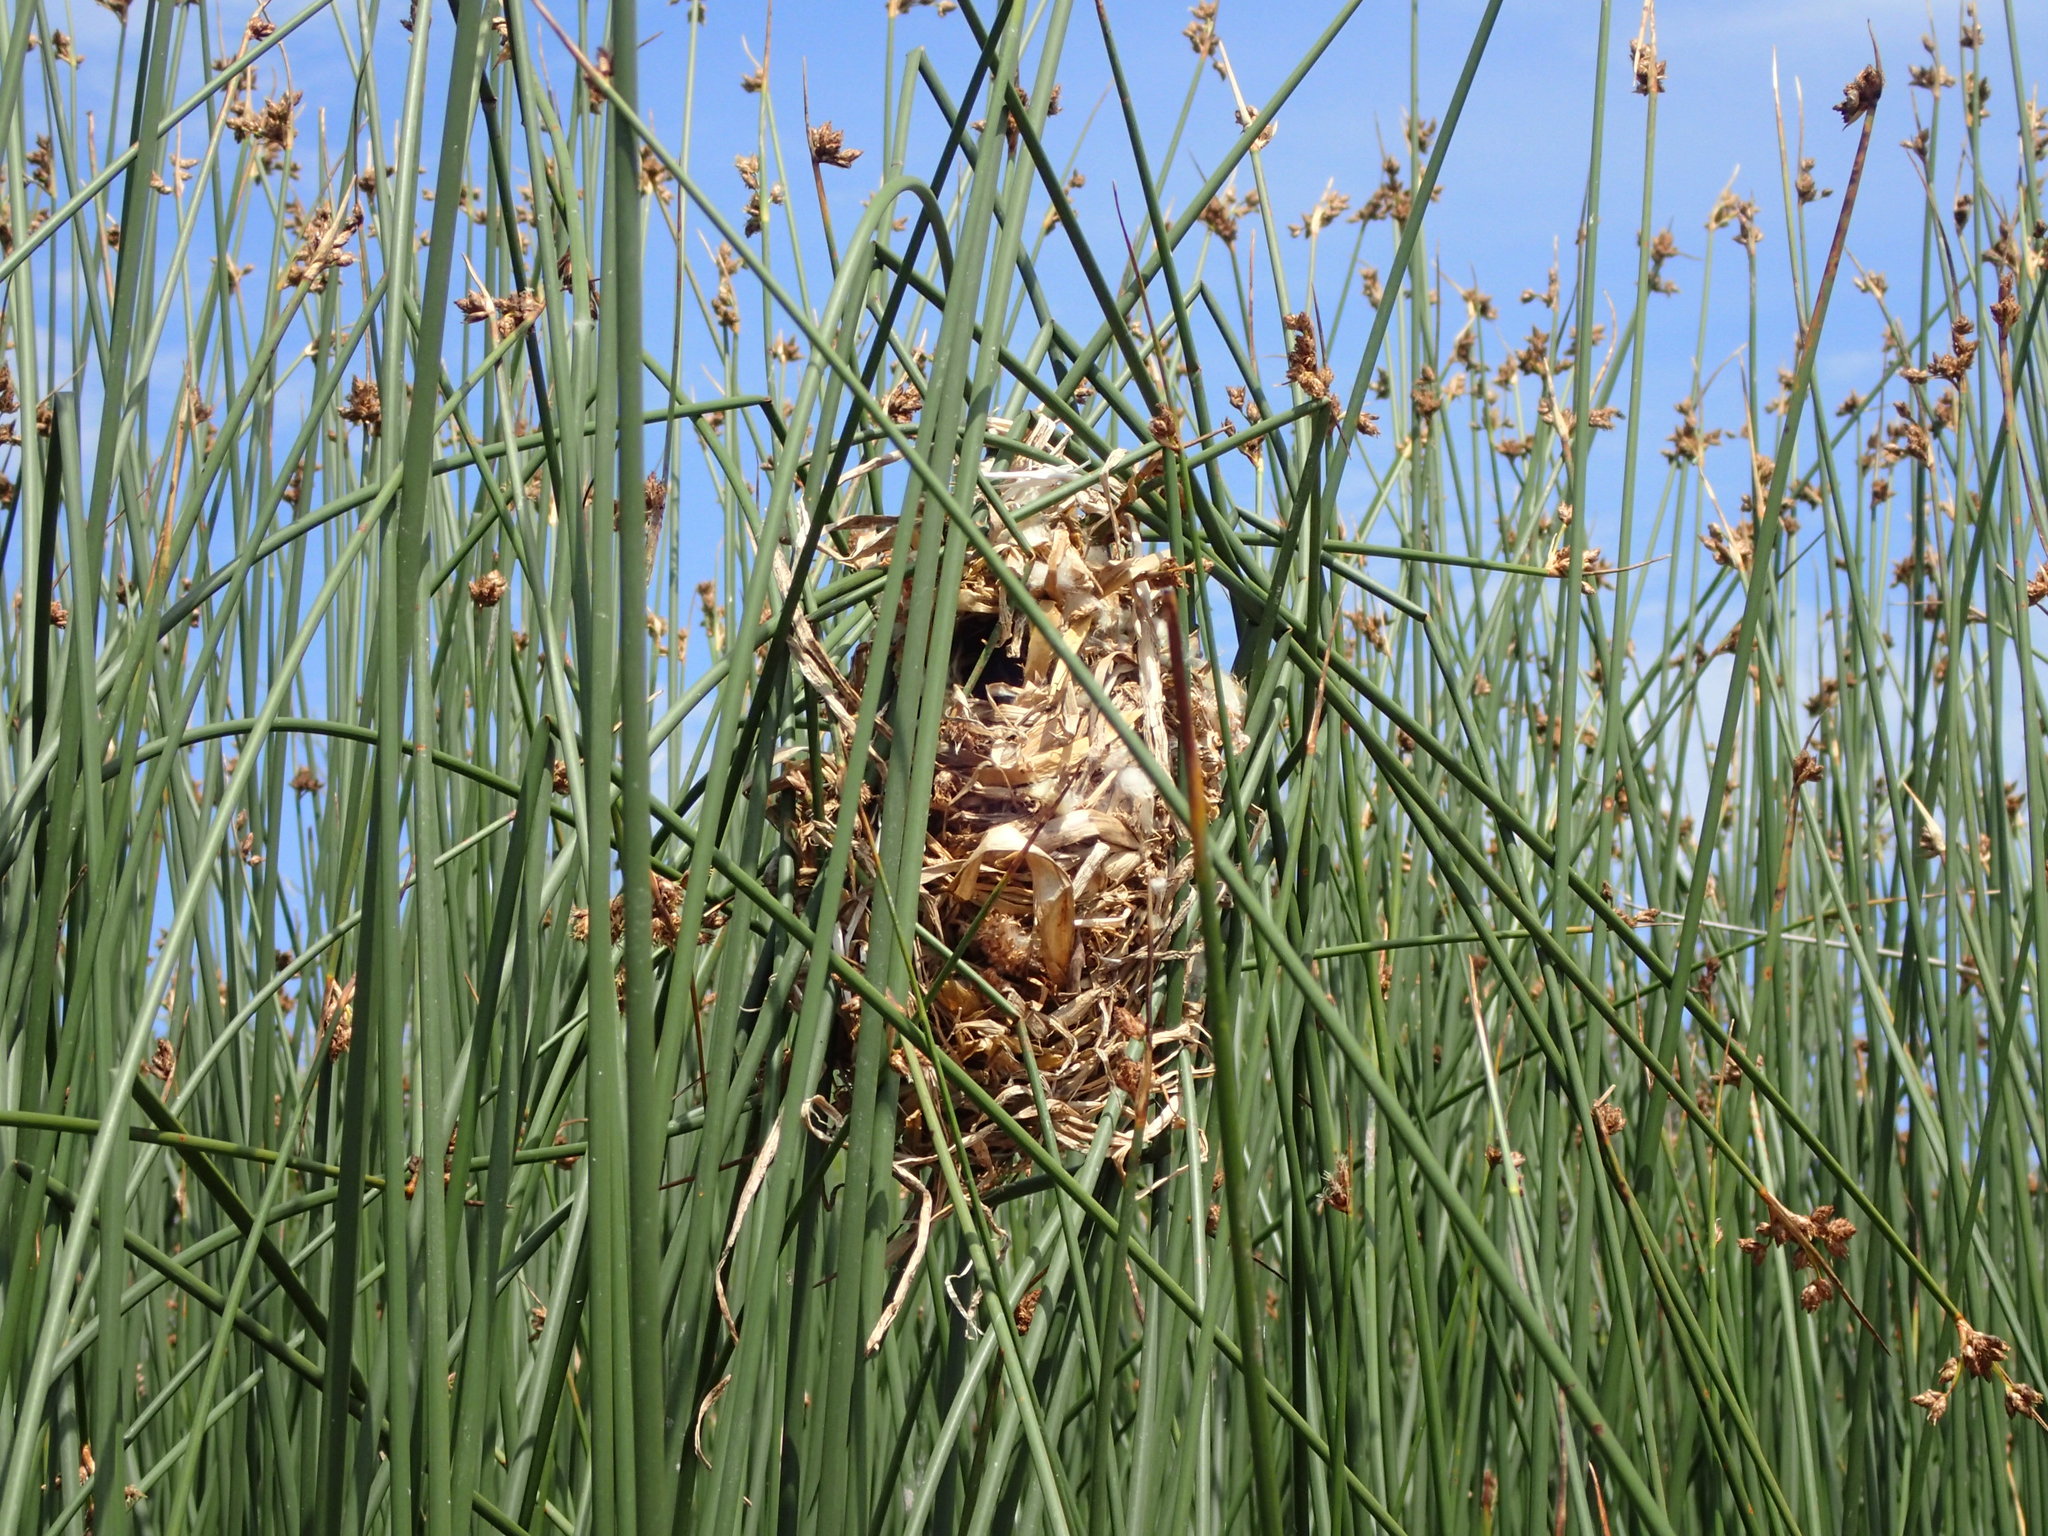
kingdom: Animalia
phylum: Chordata
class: Aves
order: Passeriformes
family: Troglodytidae
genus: Cistothorus
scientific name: Cistothorus palustris
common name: Marsh wren
